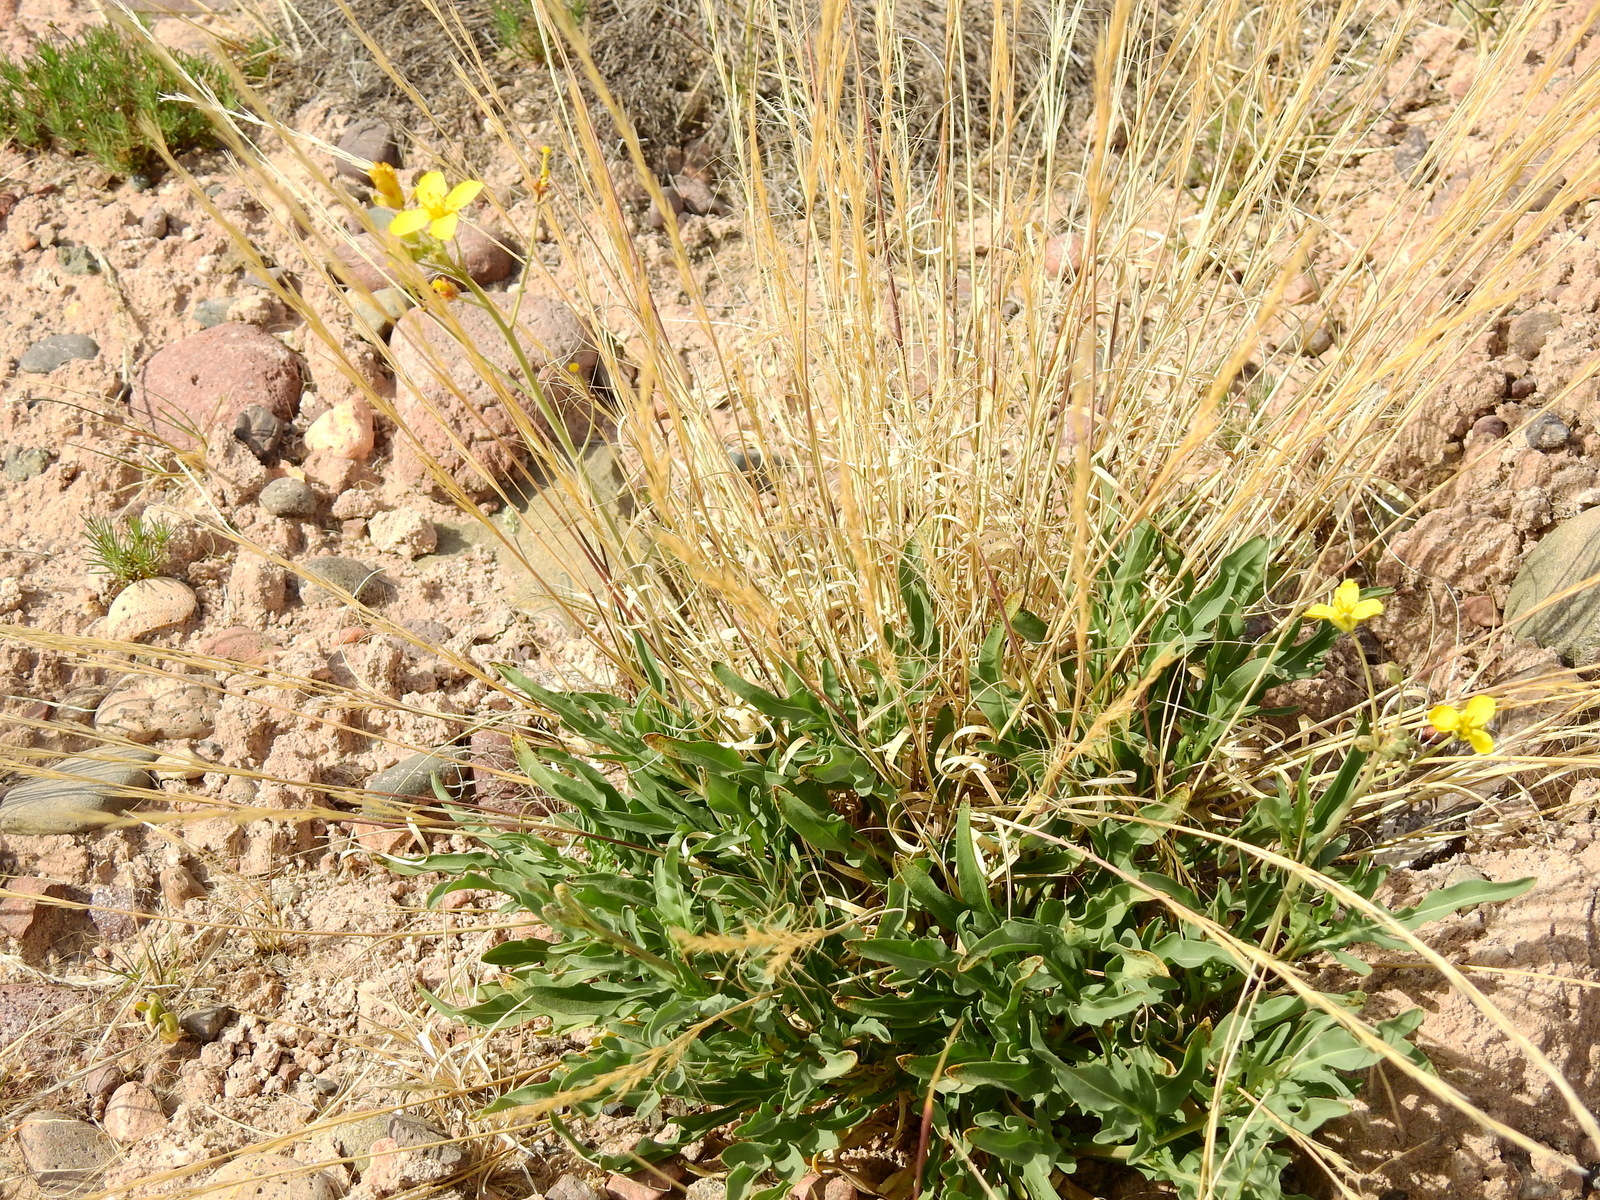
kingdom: Plantae
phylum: Tracheophyta
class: Magnoliopsida
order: Brassicales
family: Brassicaceae
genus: Diplotaxis
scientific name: Diplotaxis tenuifolia
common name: Perennial wall-rocket
